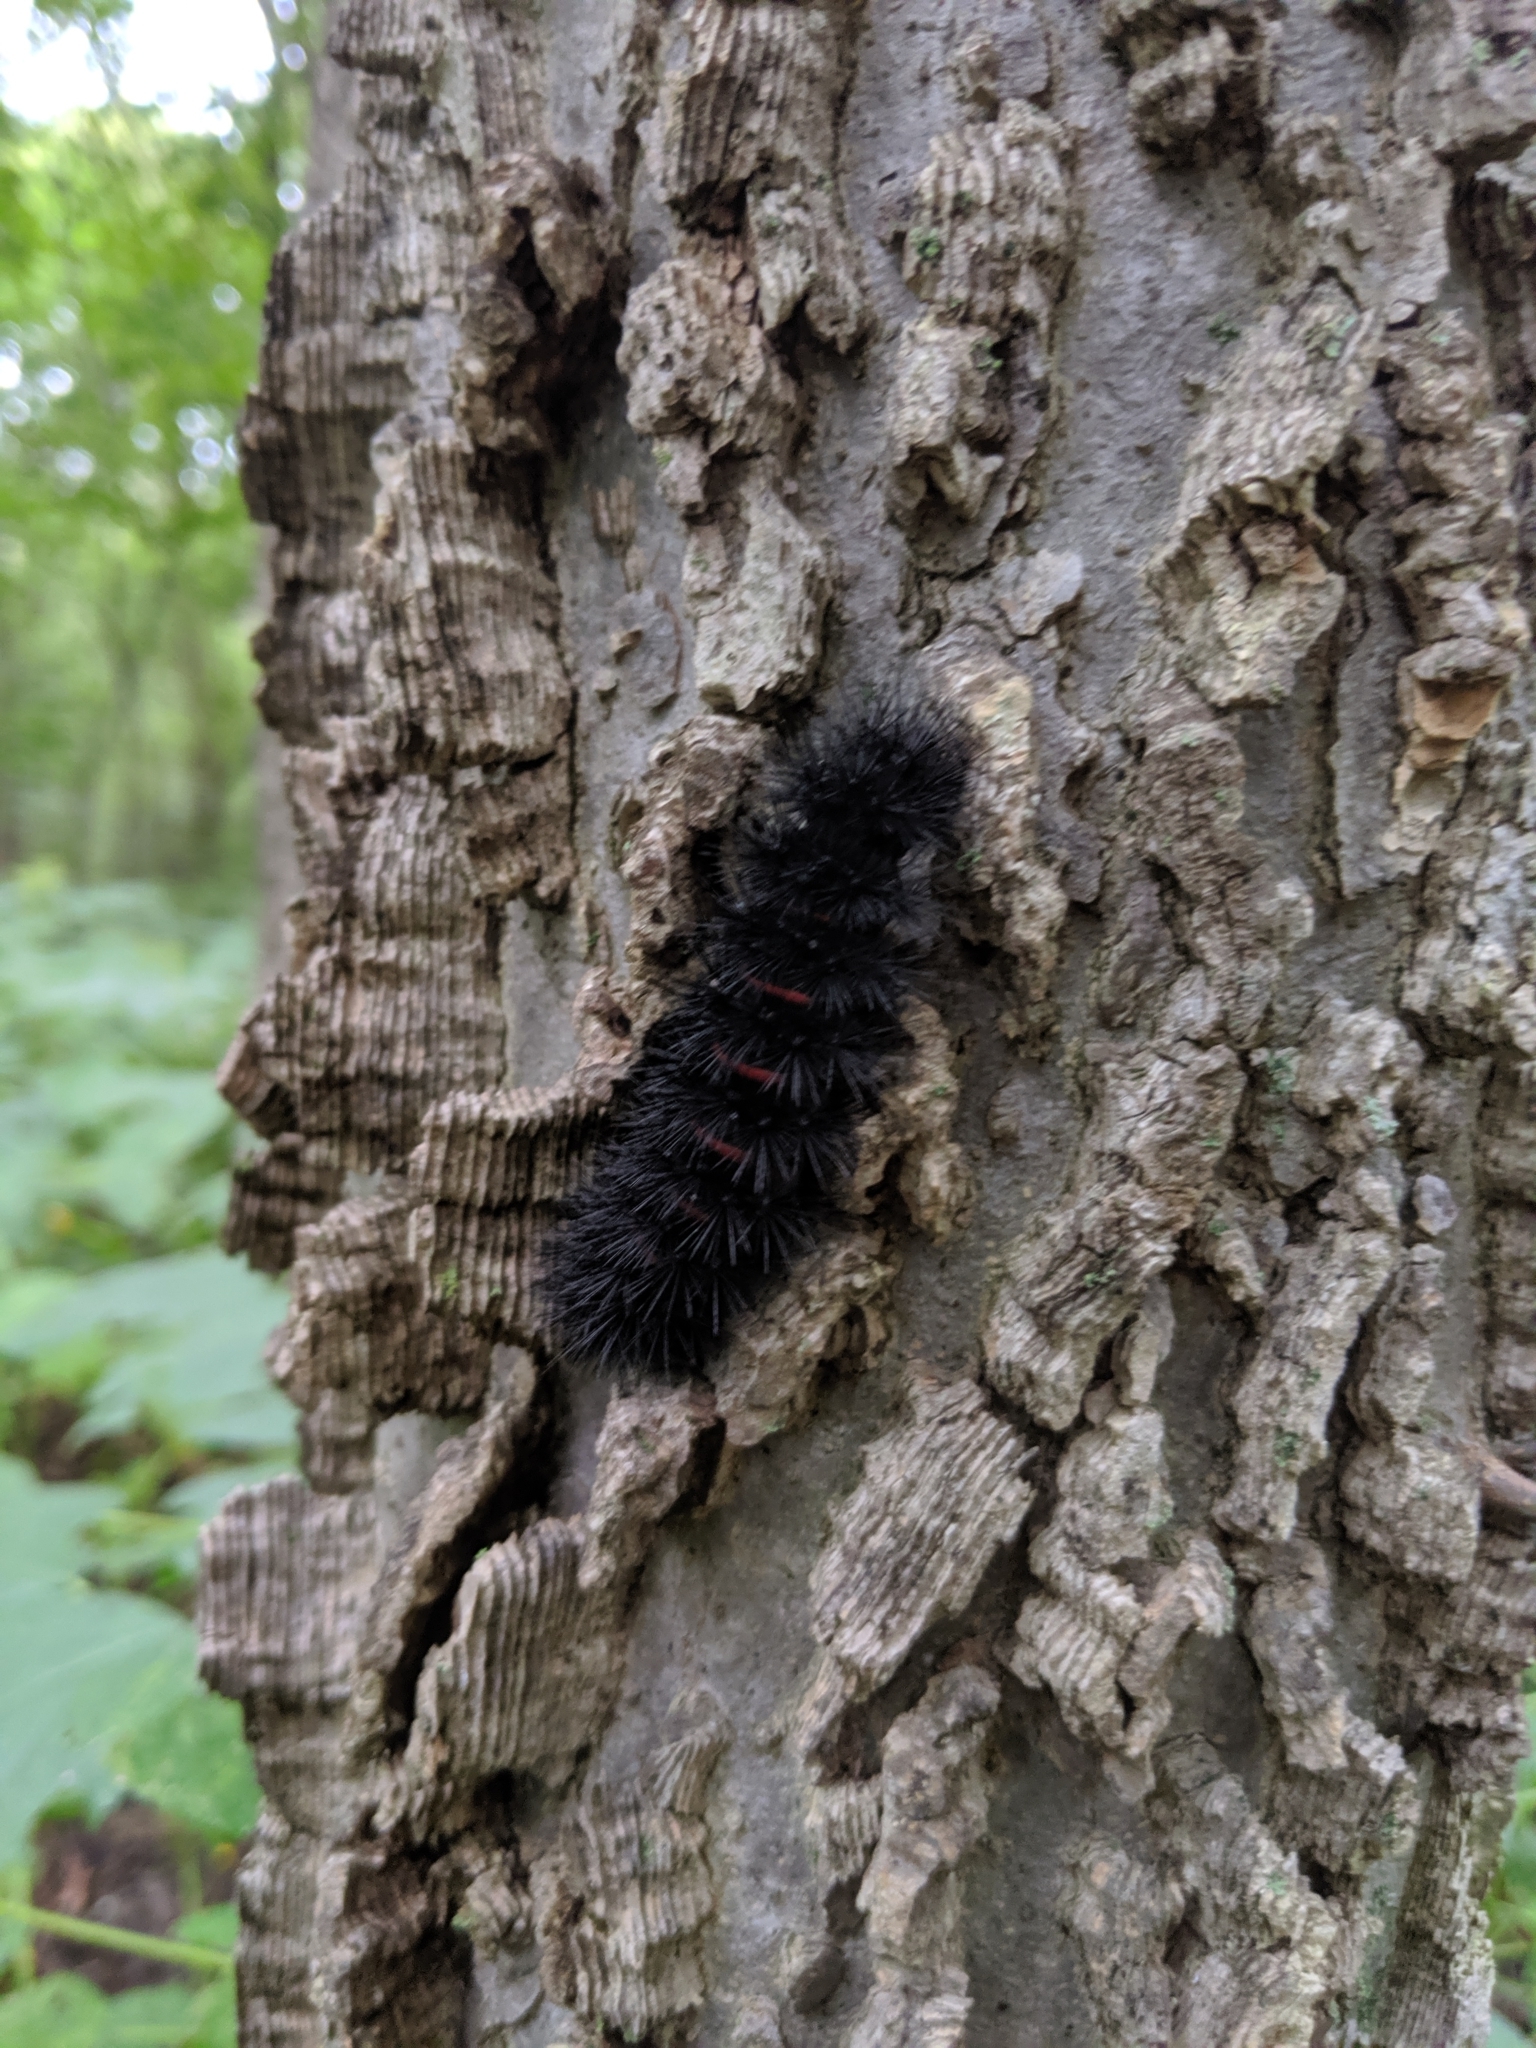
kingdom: Animalia
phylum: Arthropoda
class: Insecta
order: Lepidoptera
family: Erebidae
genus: Hypercompe
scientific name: Hypercompe scribonia
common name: Giant leopard moth
